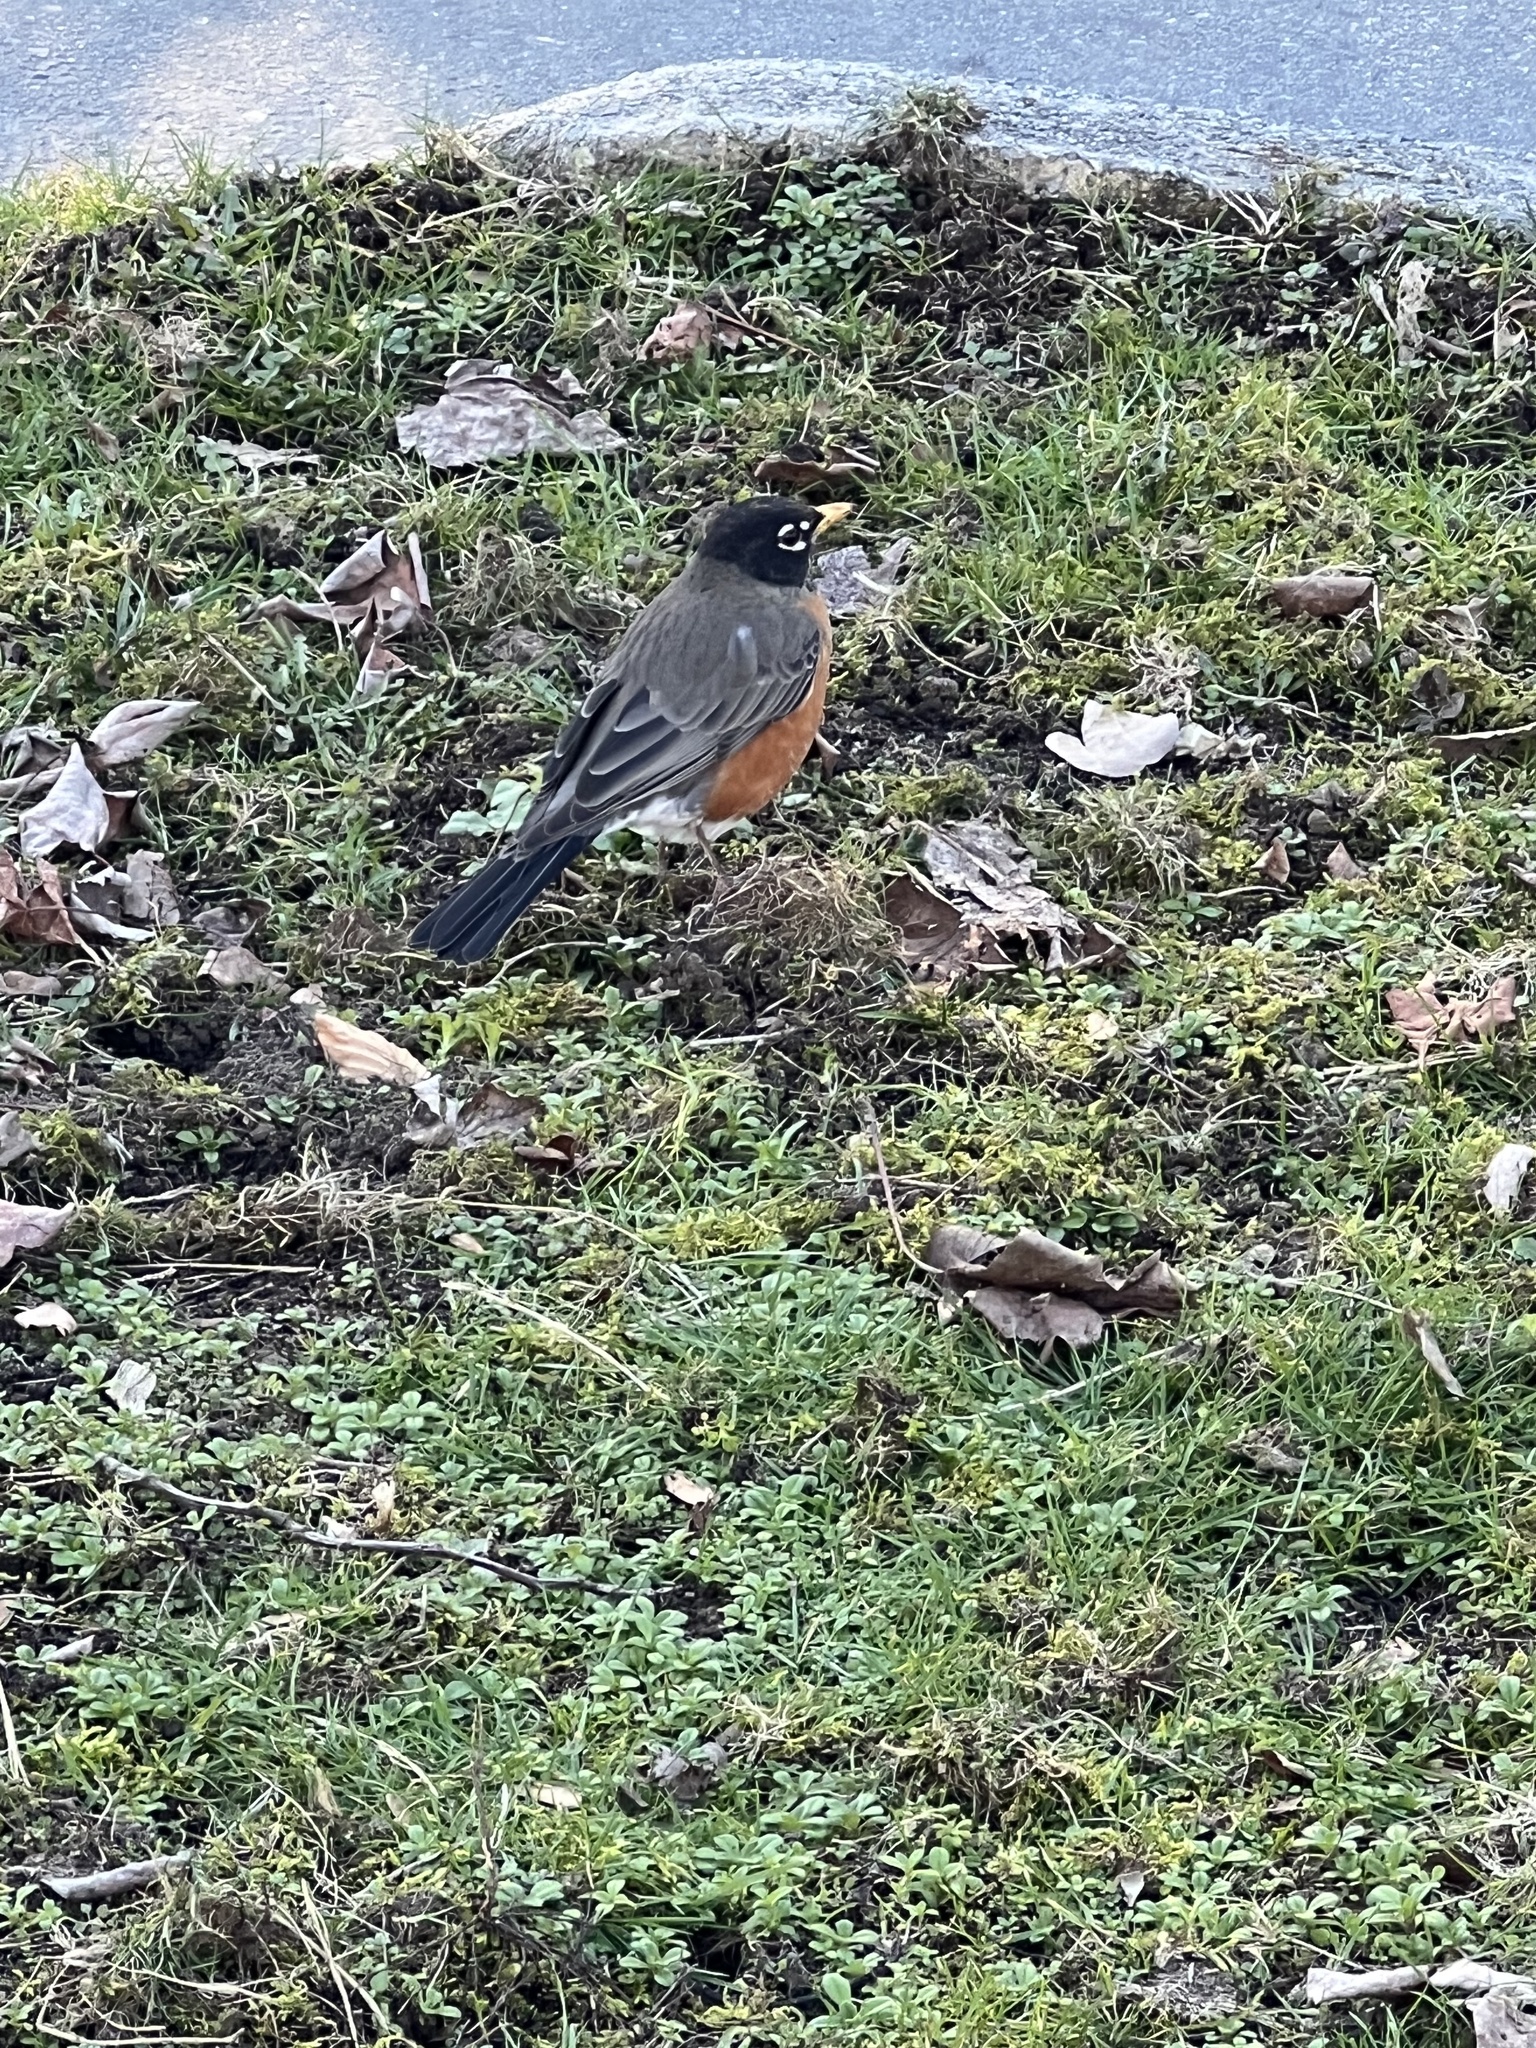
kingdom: Animalia
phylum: Chordata
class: Aves
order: Passeriformes
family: Turdidae
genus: Turdus
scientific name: Turdus migratorius
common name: American robin
